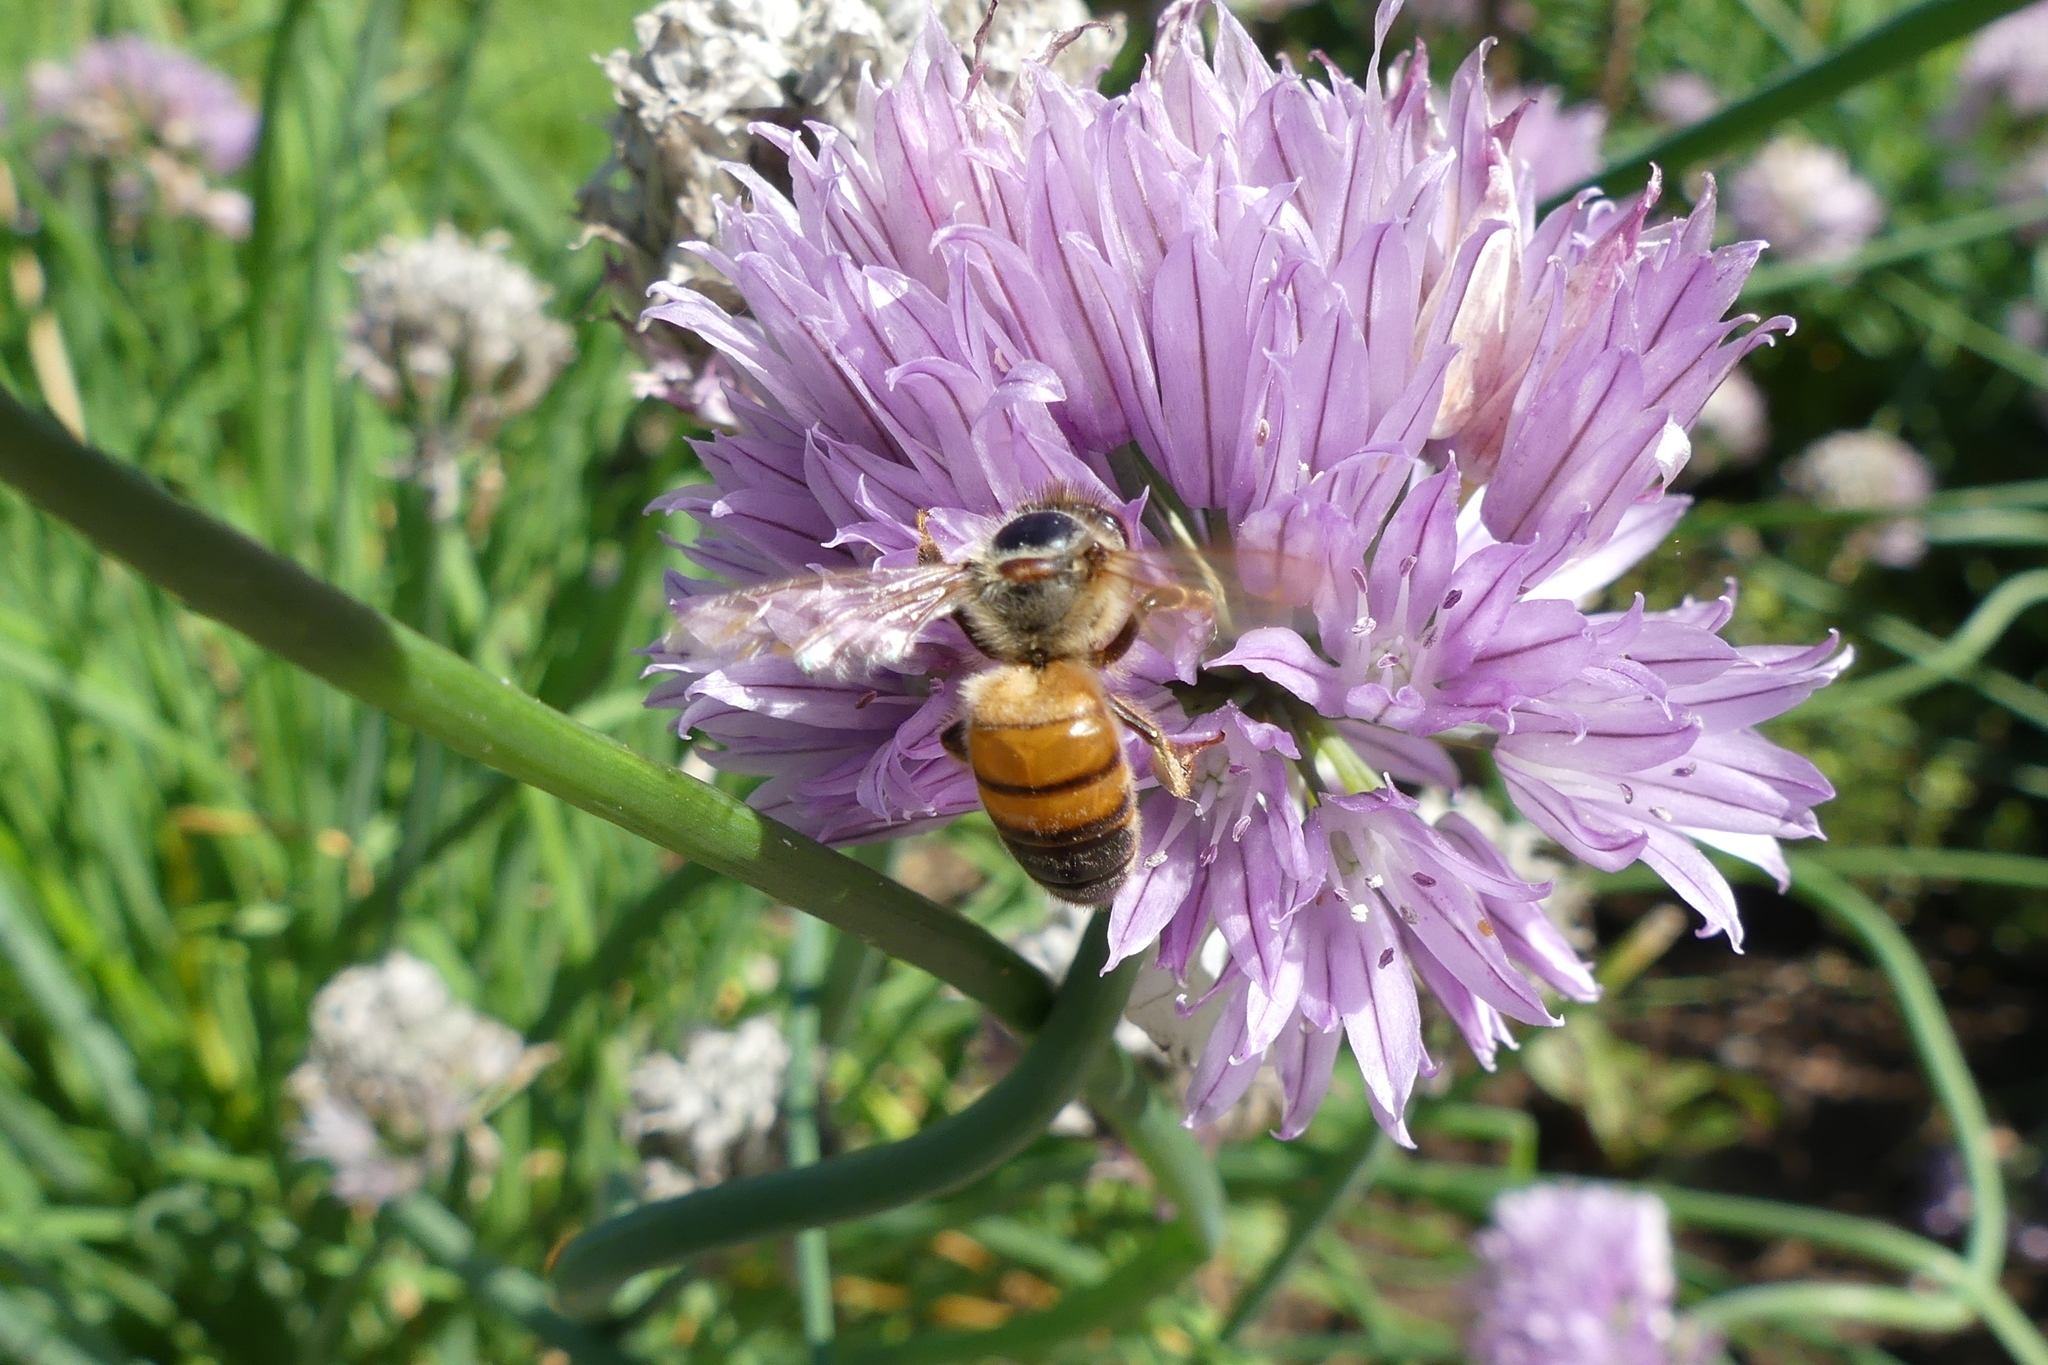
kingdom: Animalia
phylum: Arthropoda
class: Insecta
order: Hymenoptera
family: Apidae
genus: Apis
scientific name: Apis mellifera
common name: Honey bee
